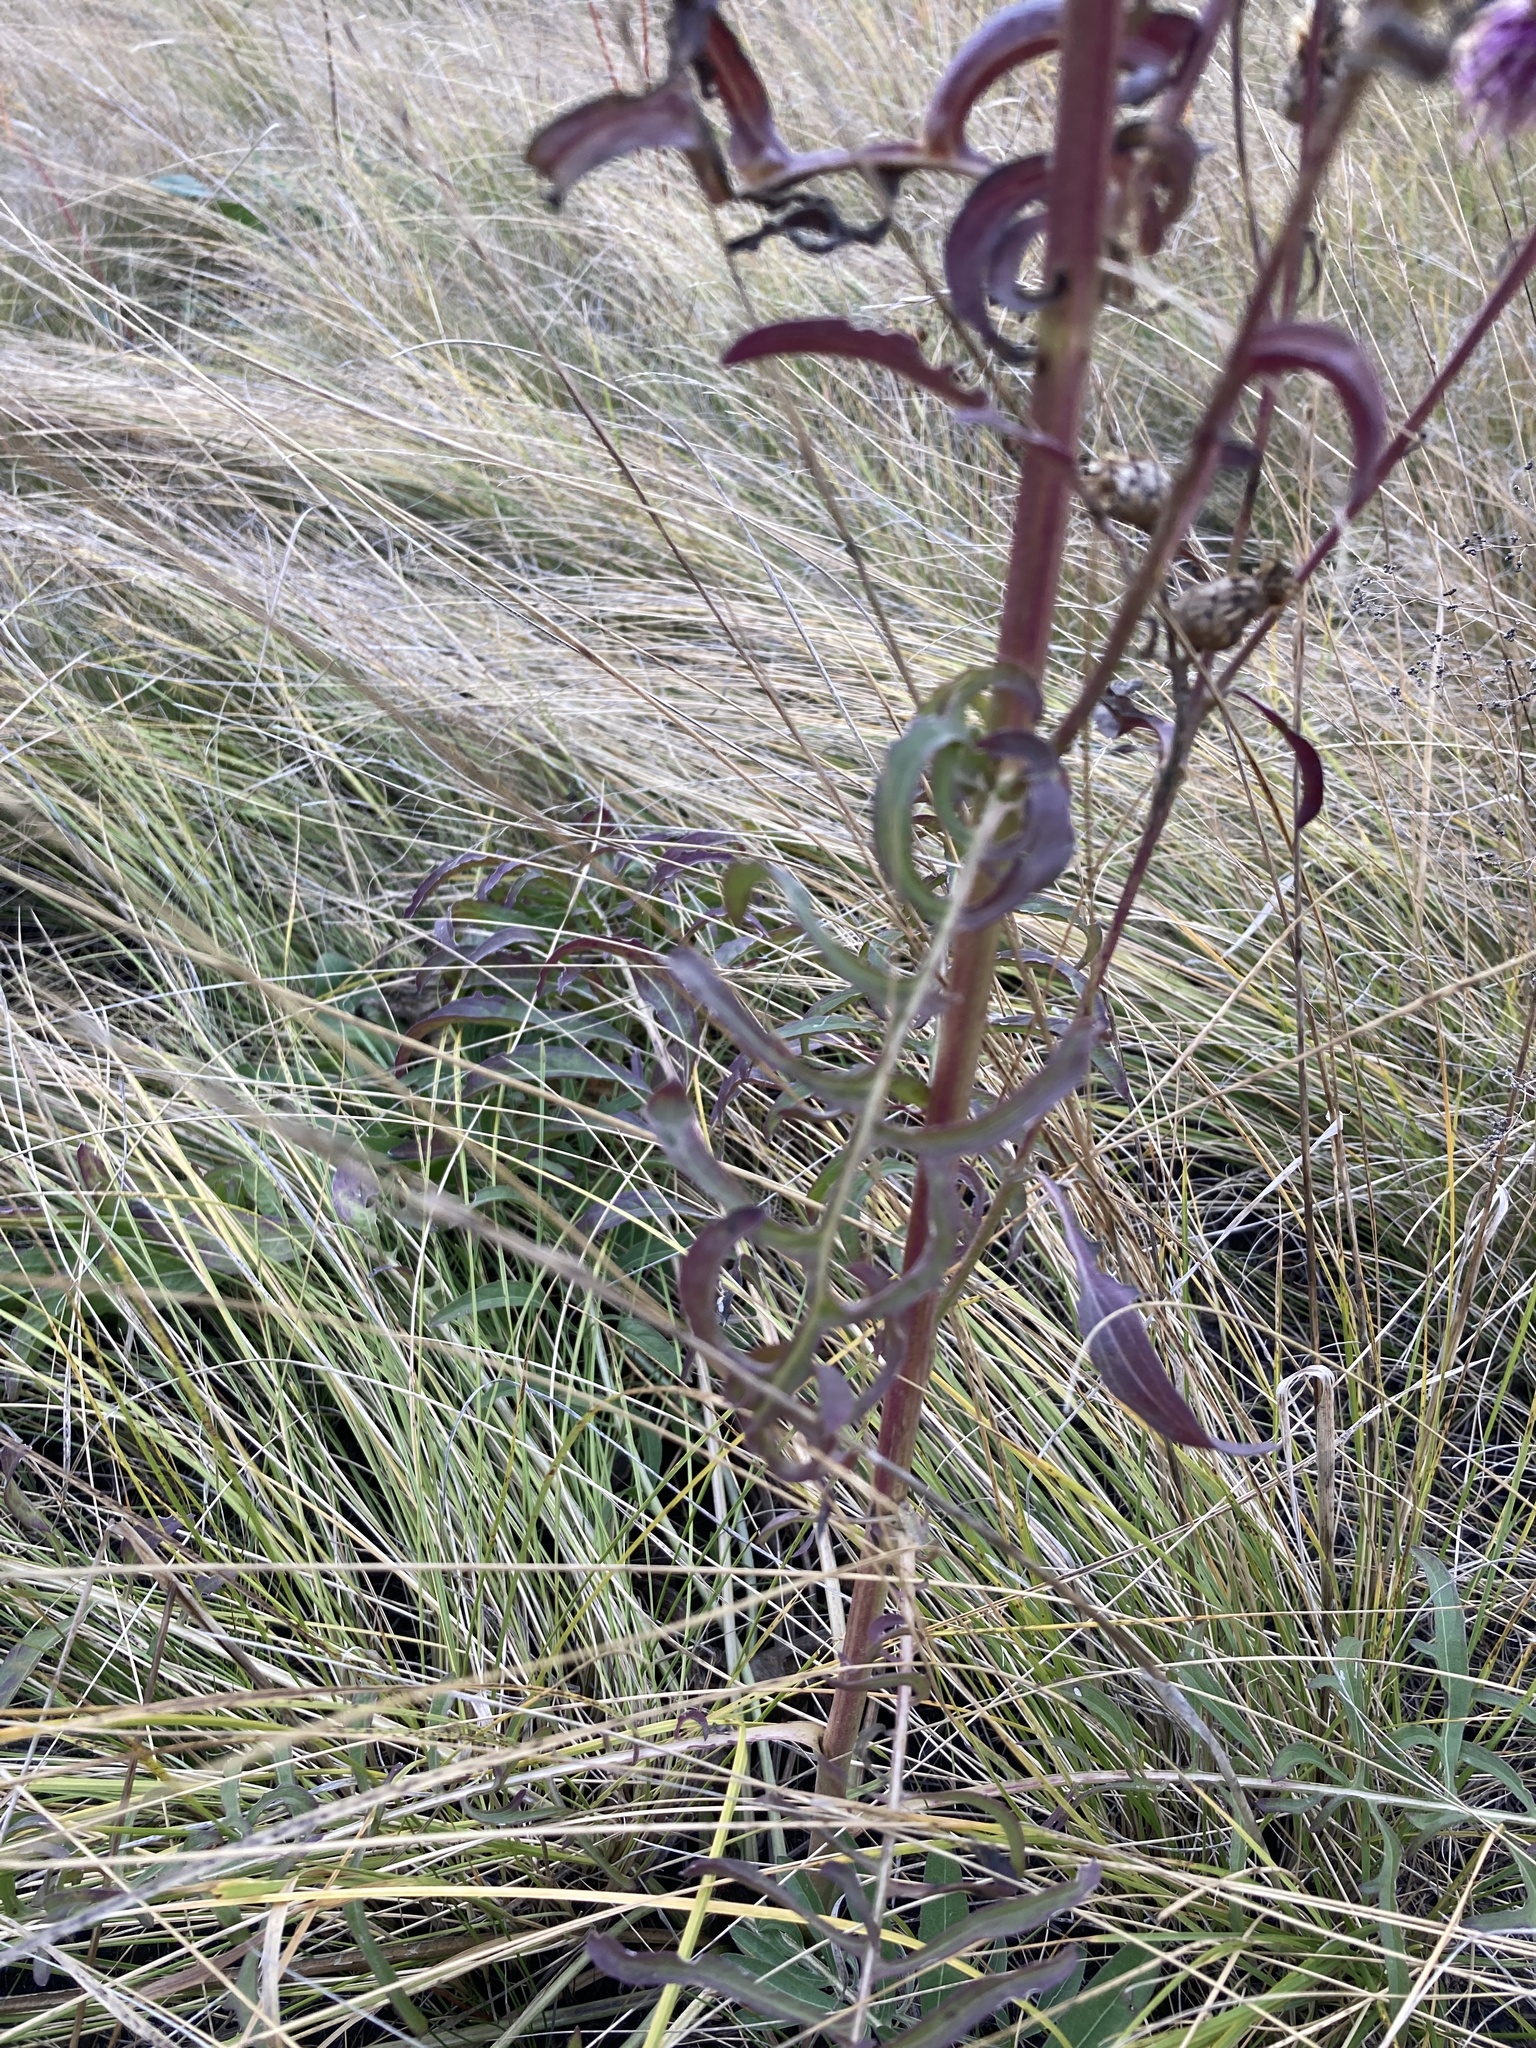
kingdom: Plantae
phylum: Tracheophyta
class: Magnoliopsida
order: Asterales
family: Asteraceae
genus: Centaurea
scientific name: Centaurea scabiosa
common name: Greater knapweed
